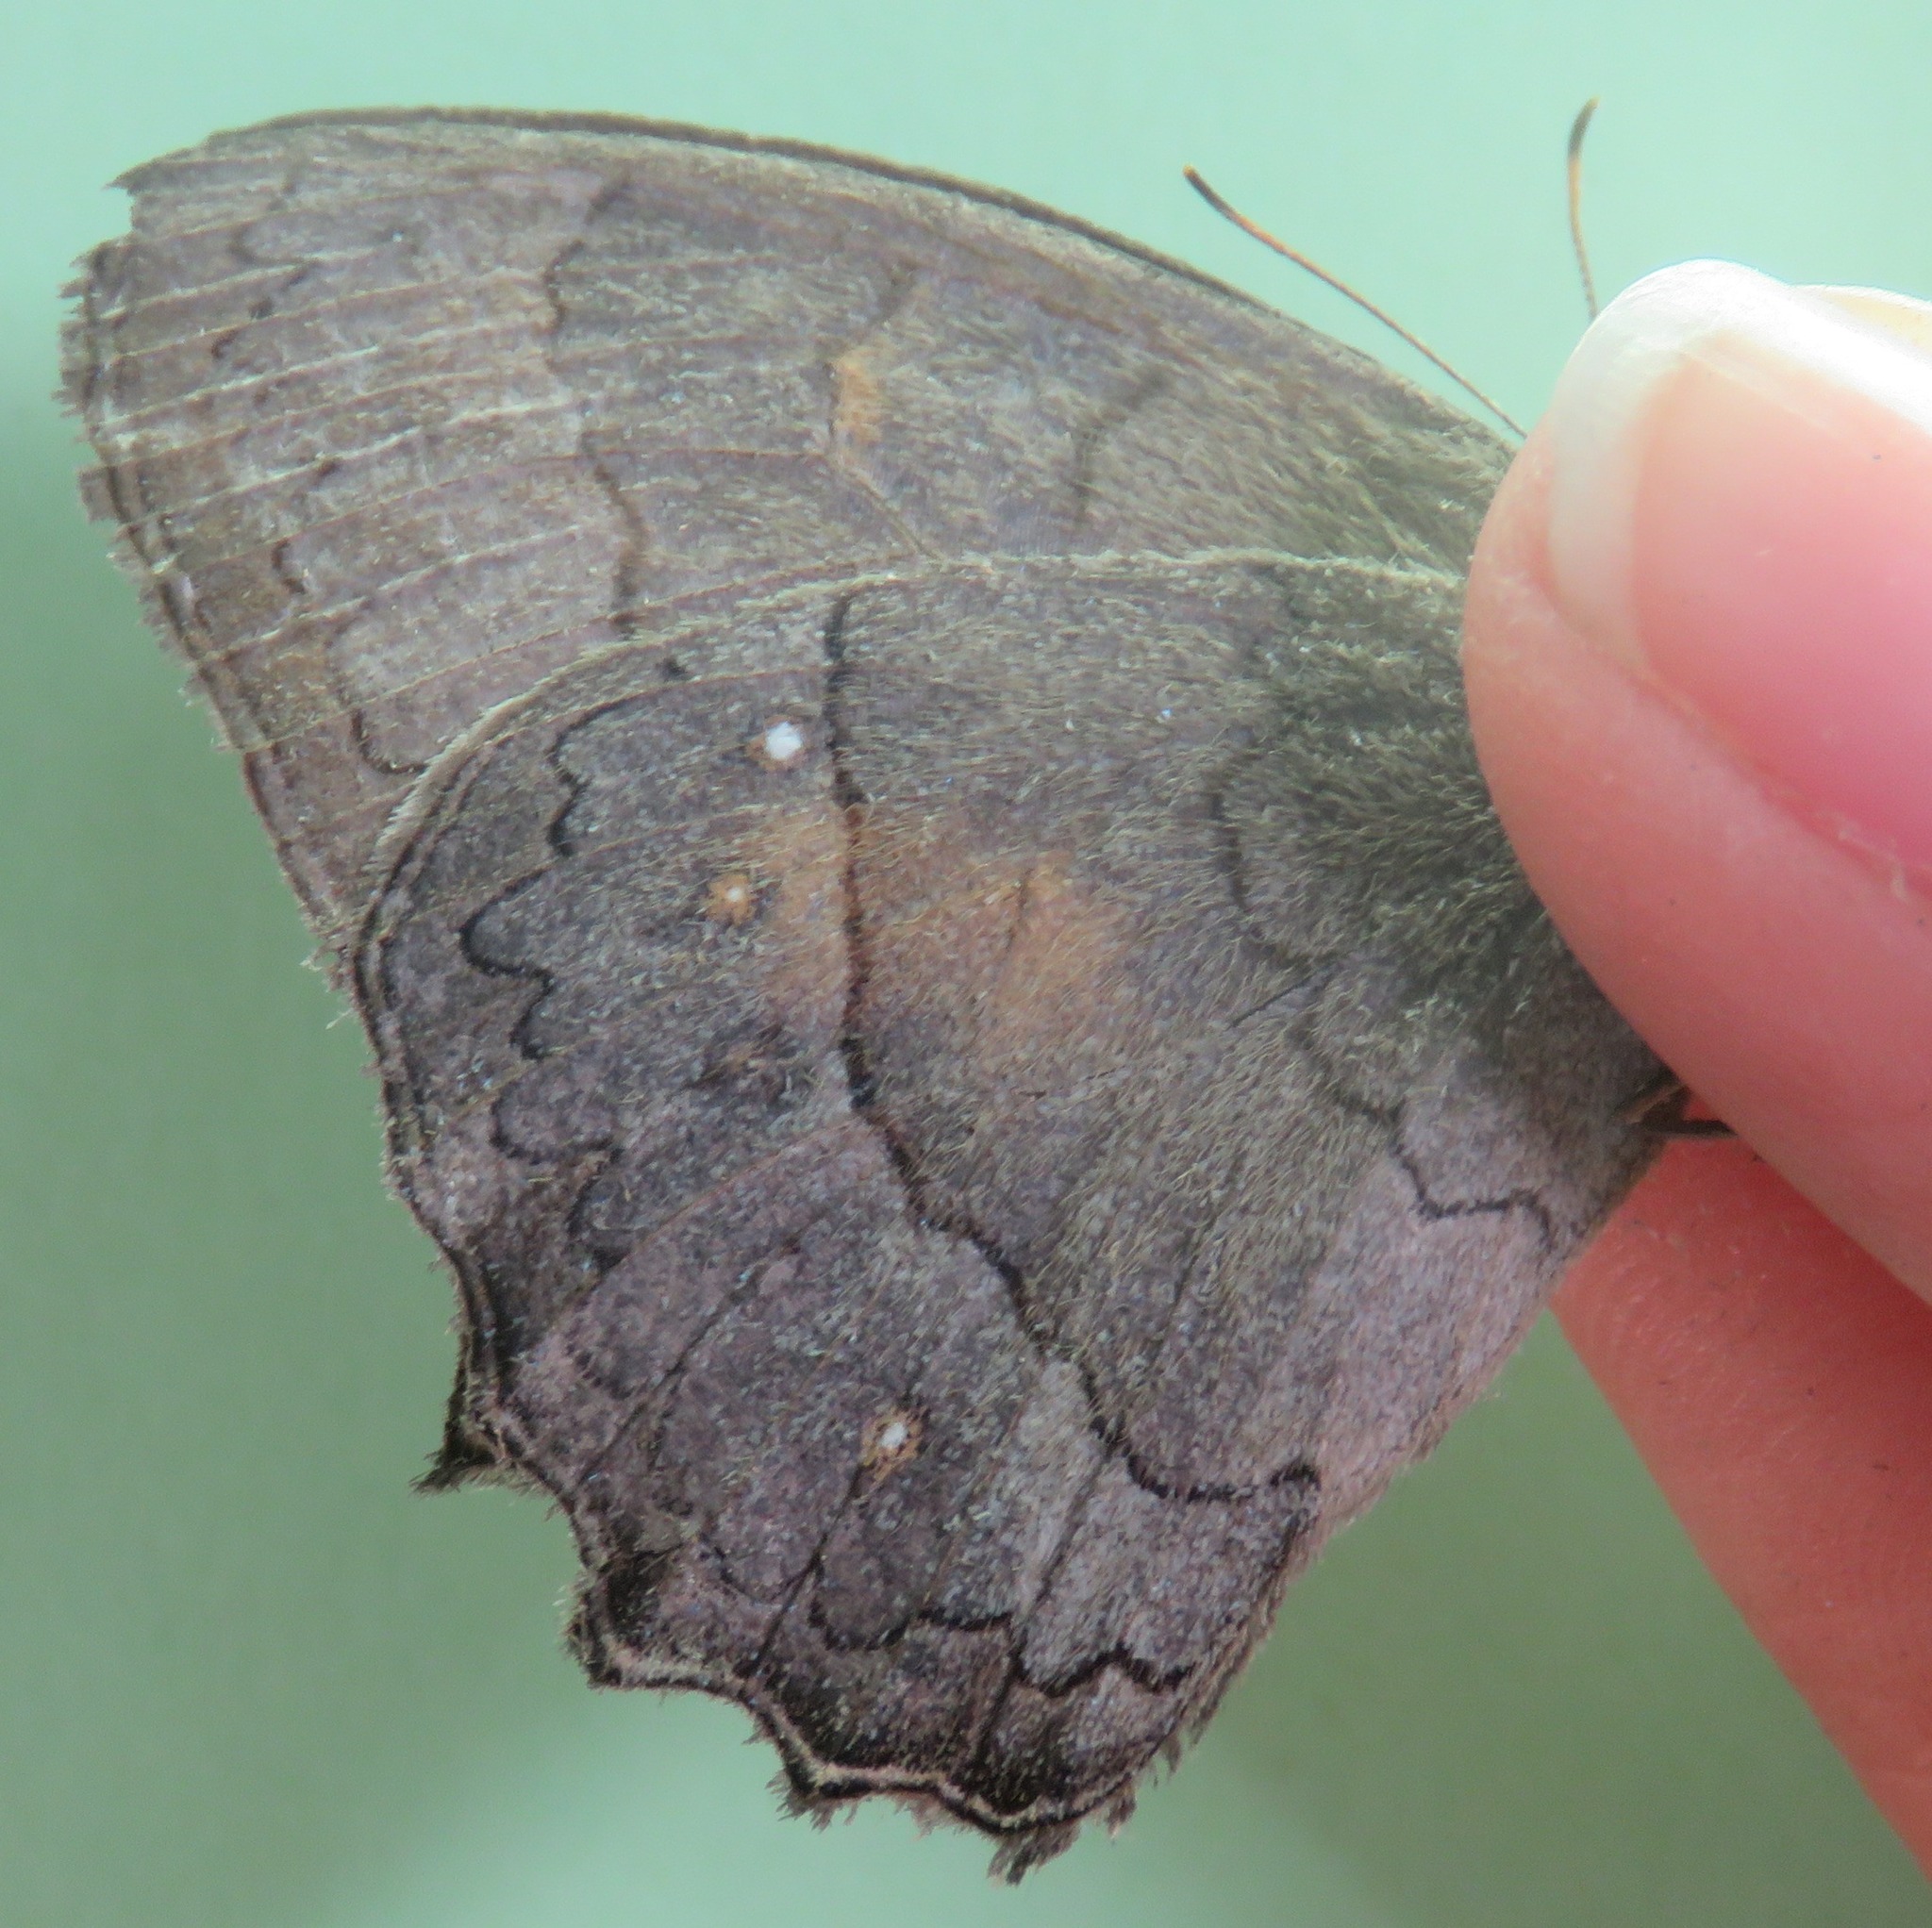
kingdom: Animalia
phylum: Arthropoda
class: Insecta
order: Lepidoptera
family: Nymphalidae
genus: Taygetina
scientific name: Taygetina kerea
